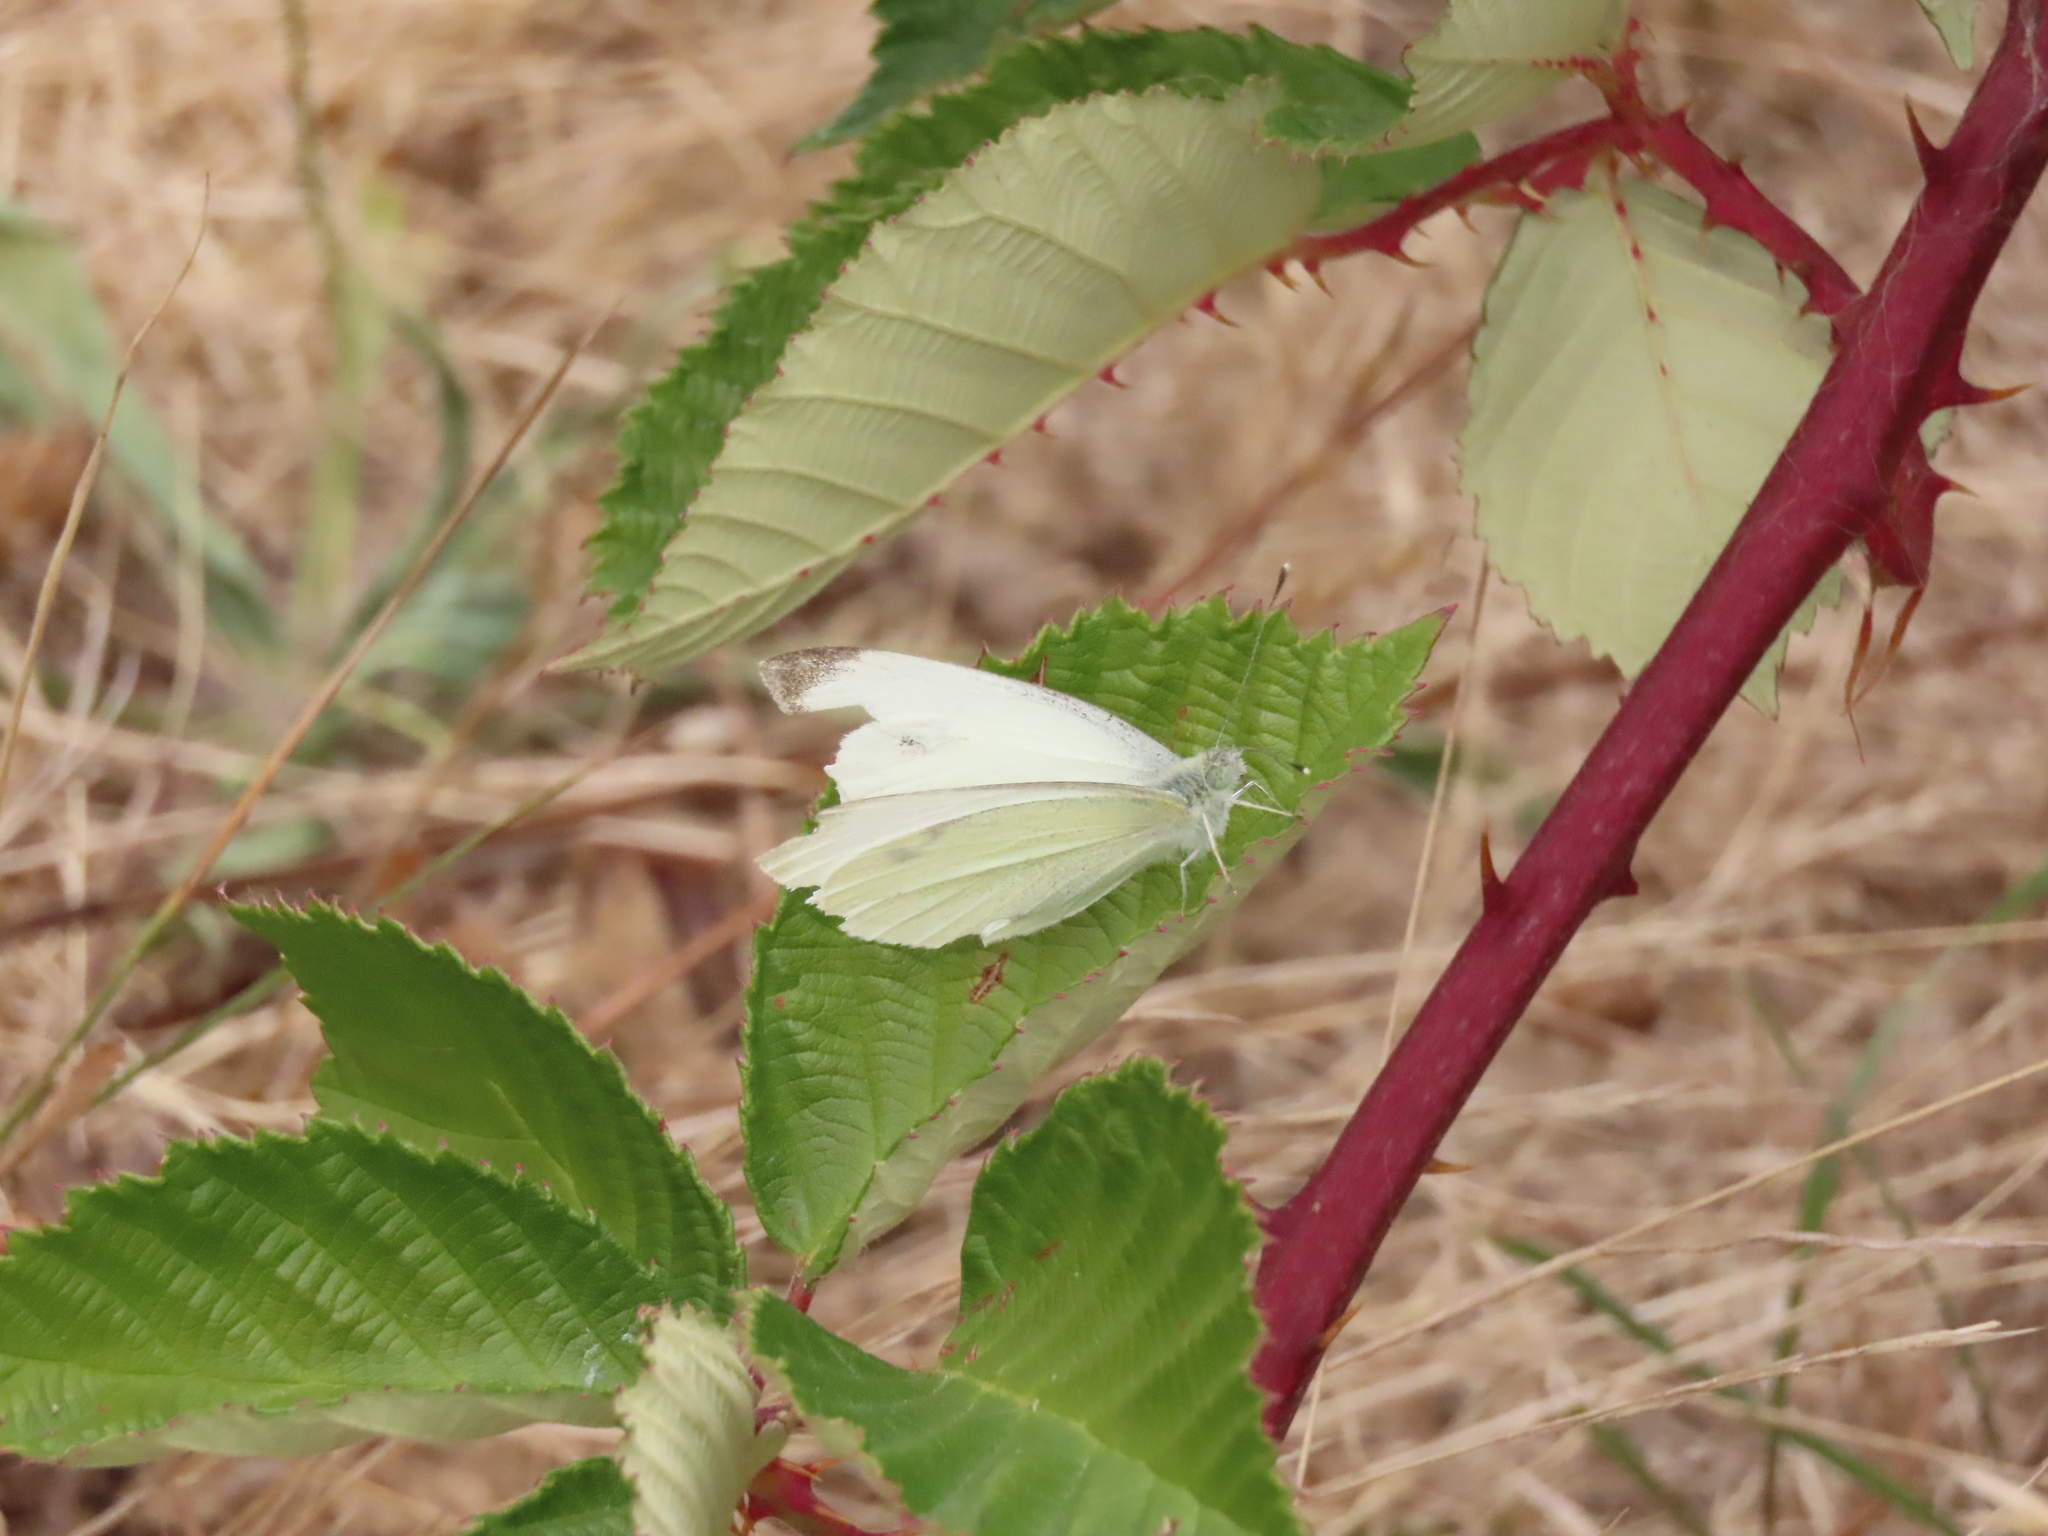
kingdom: Animalia
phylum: Arthropoda
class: Insecta
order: Lepidoptera
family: Pieridae
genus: Pieris
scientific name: Pieris rapae
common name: Small white
